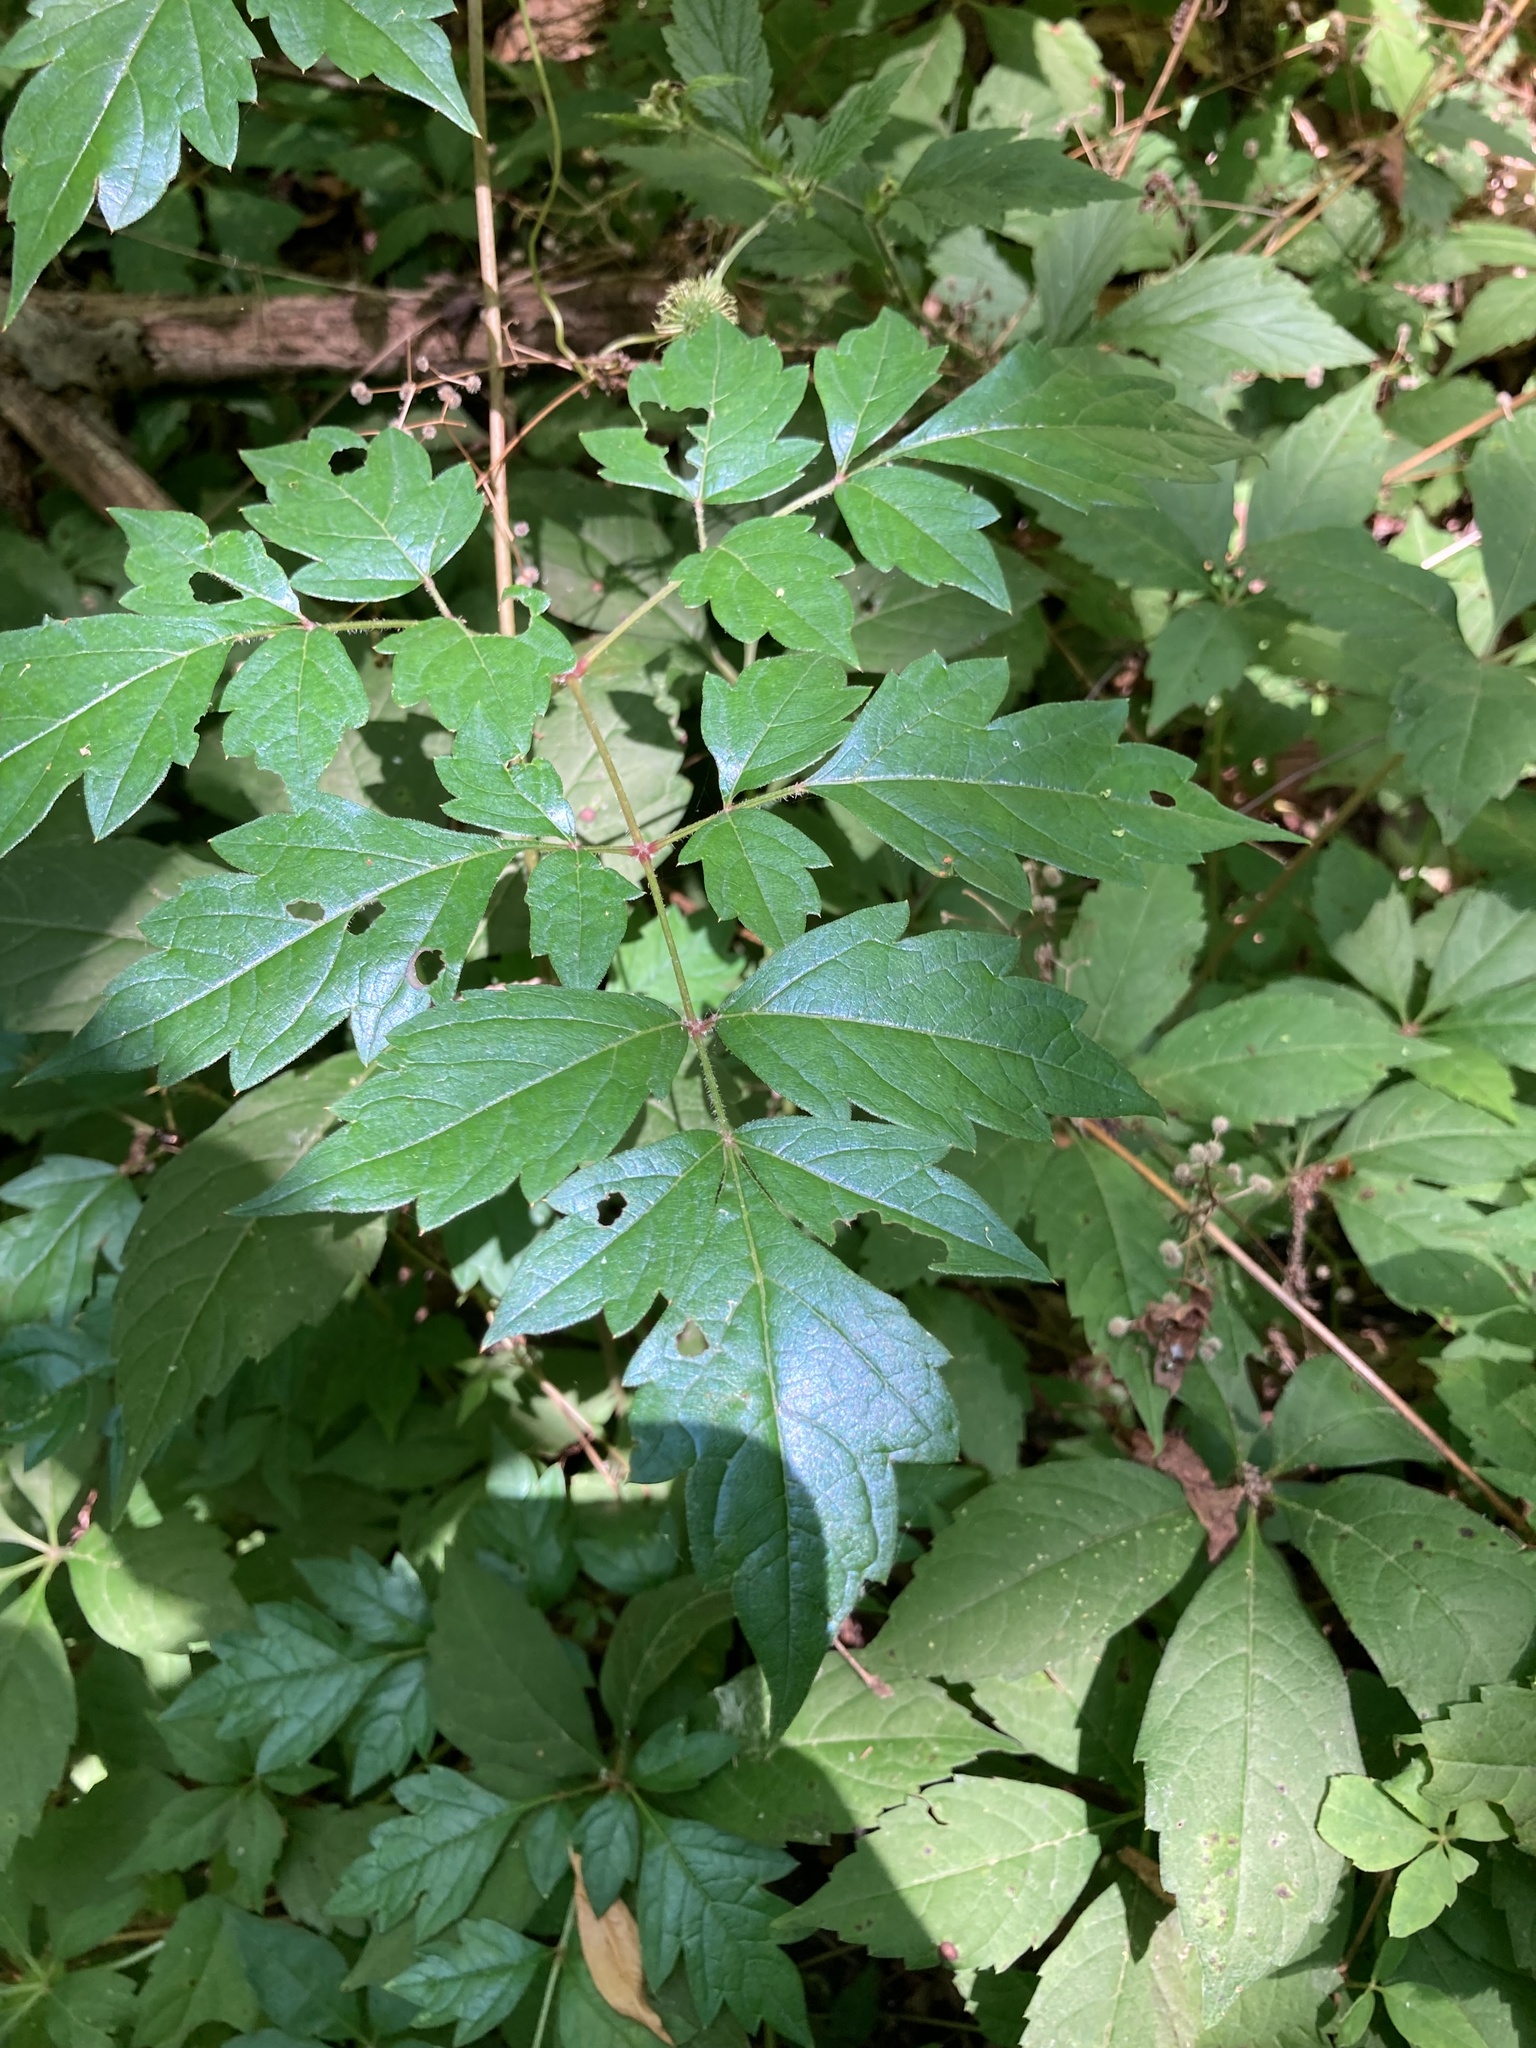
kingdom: Plantae
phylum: Tracheophyta
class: Magnoliopsida
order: Vitales
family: Vitaceae
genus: Nekemias
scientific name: Nekemias arborea
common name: Peppervine
